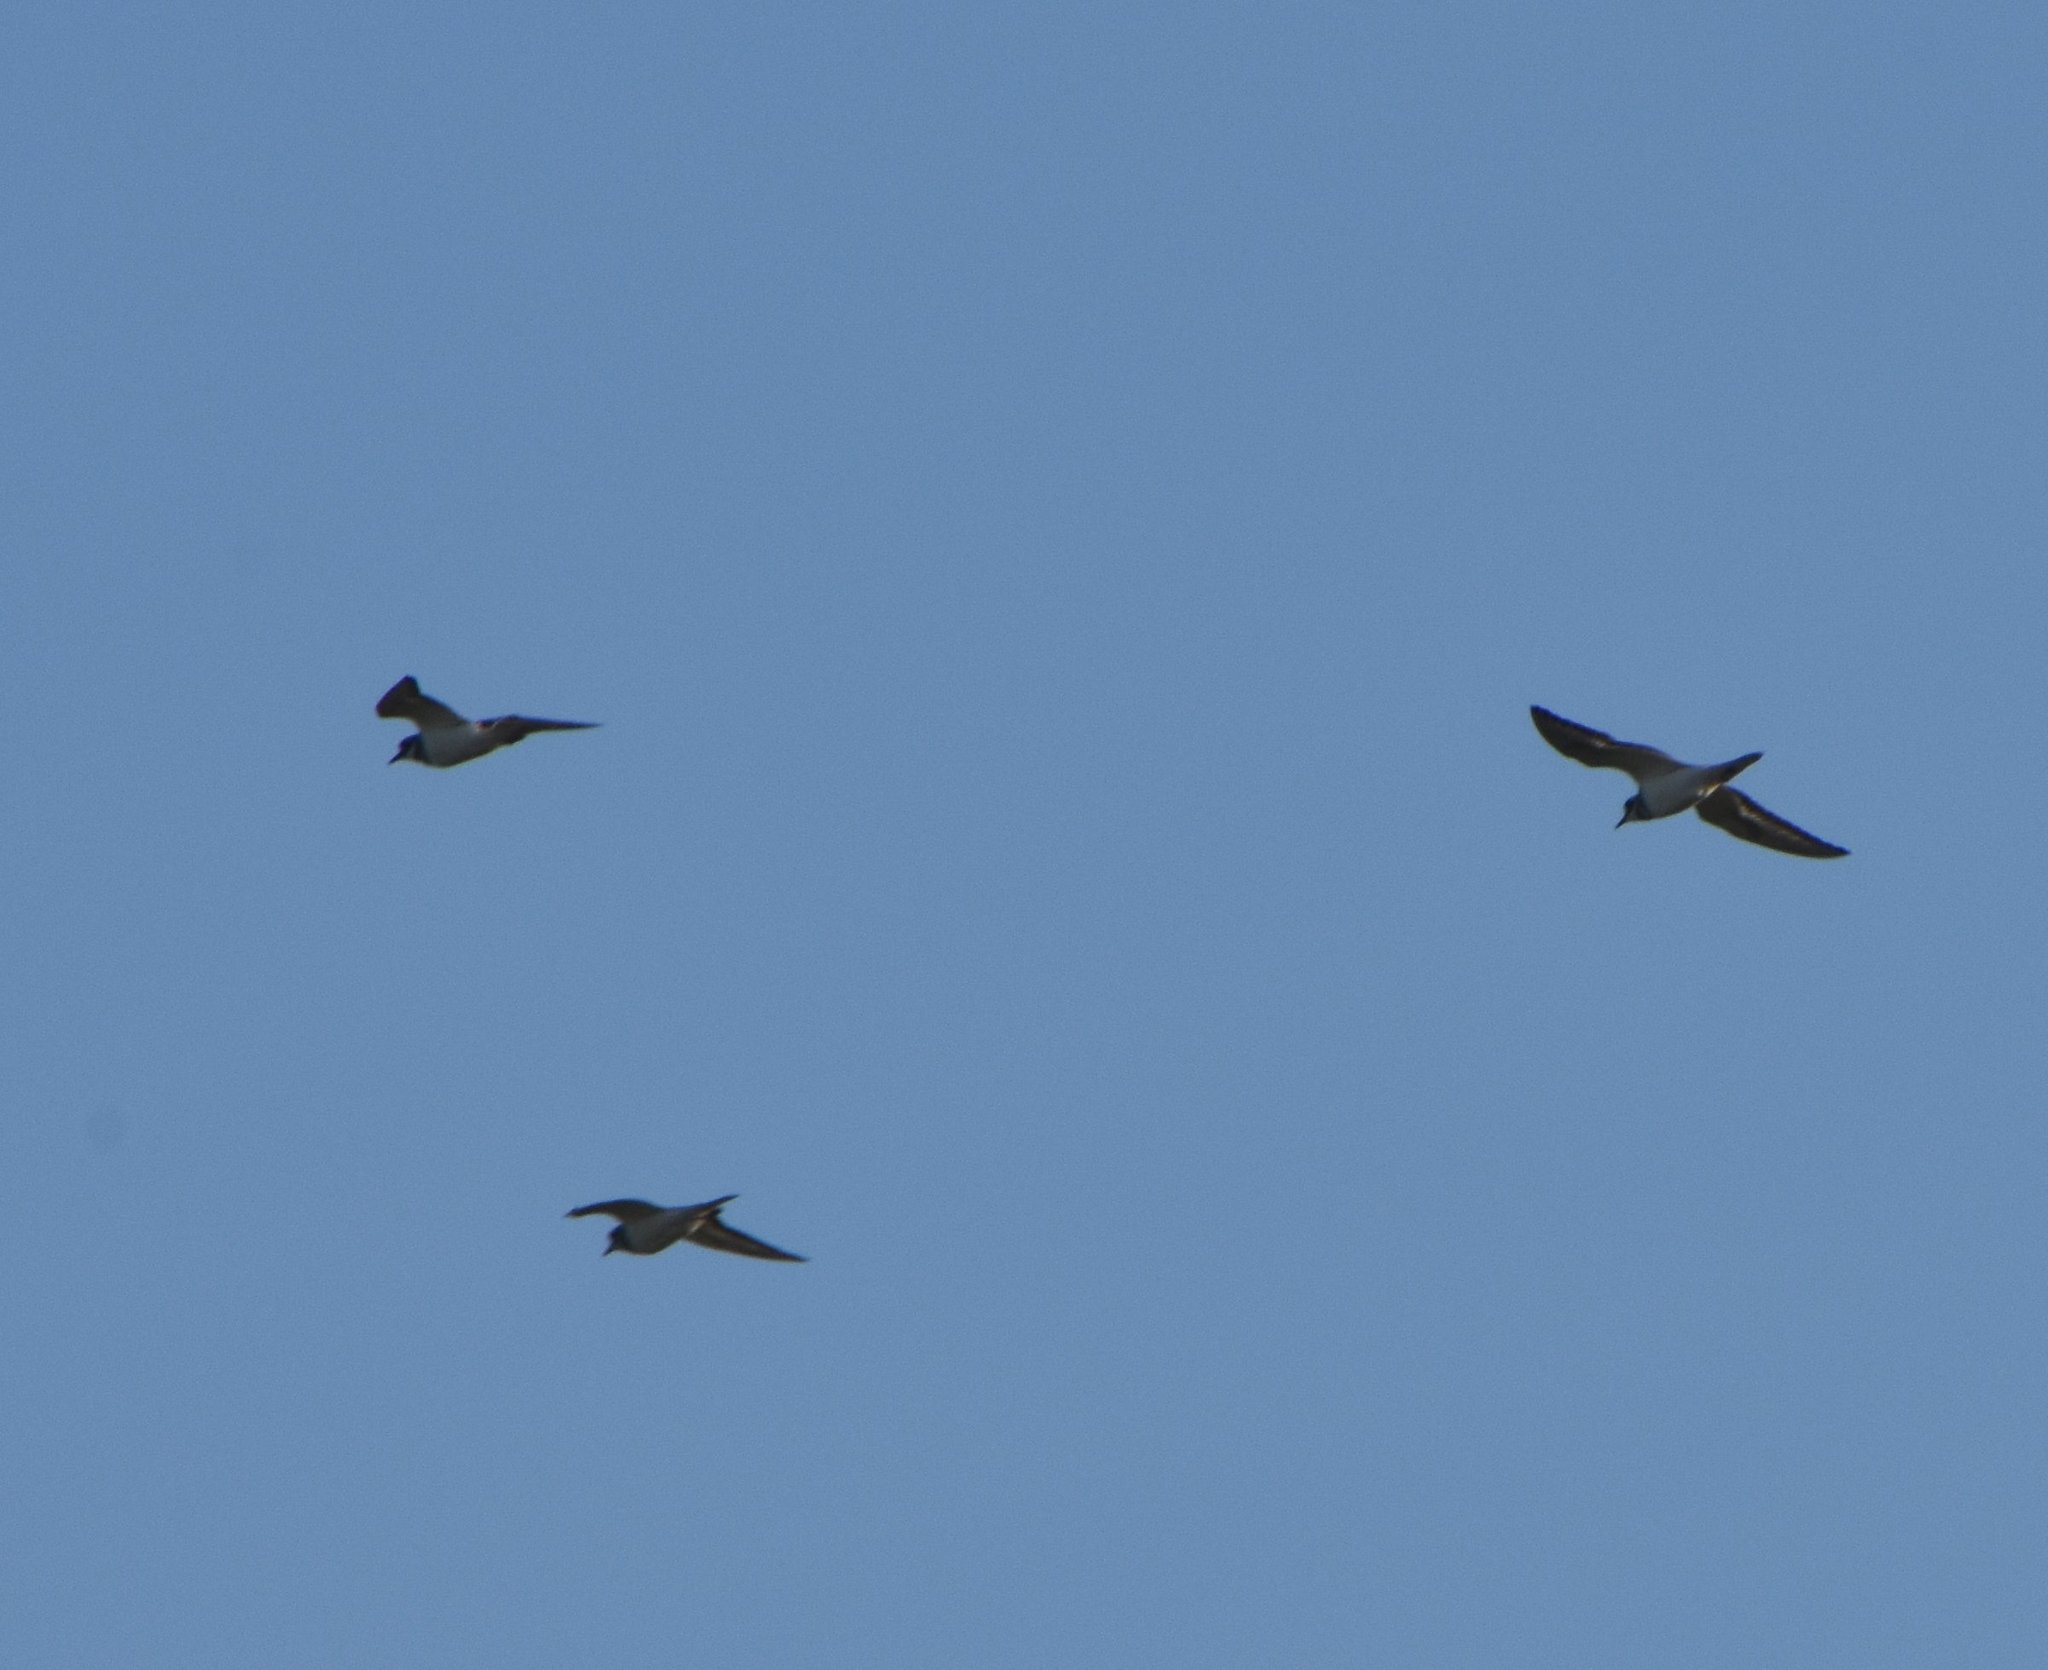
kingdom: Animalia
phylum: Chordata
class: Aves
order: Charadriiformes
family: Charadriidae
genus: Charadrius
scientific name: Charadrius vociferus
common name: Killdeer
